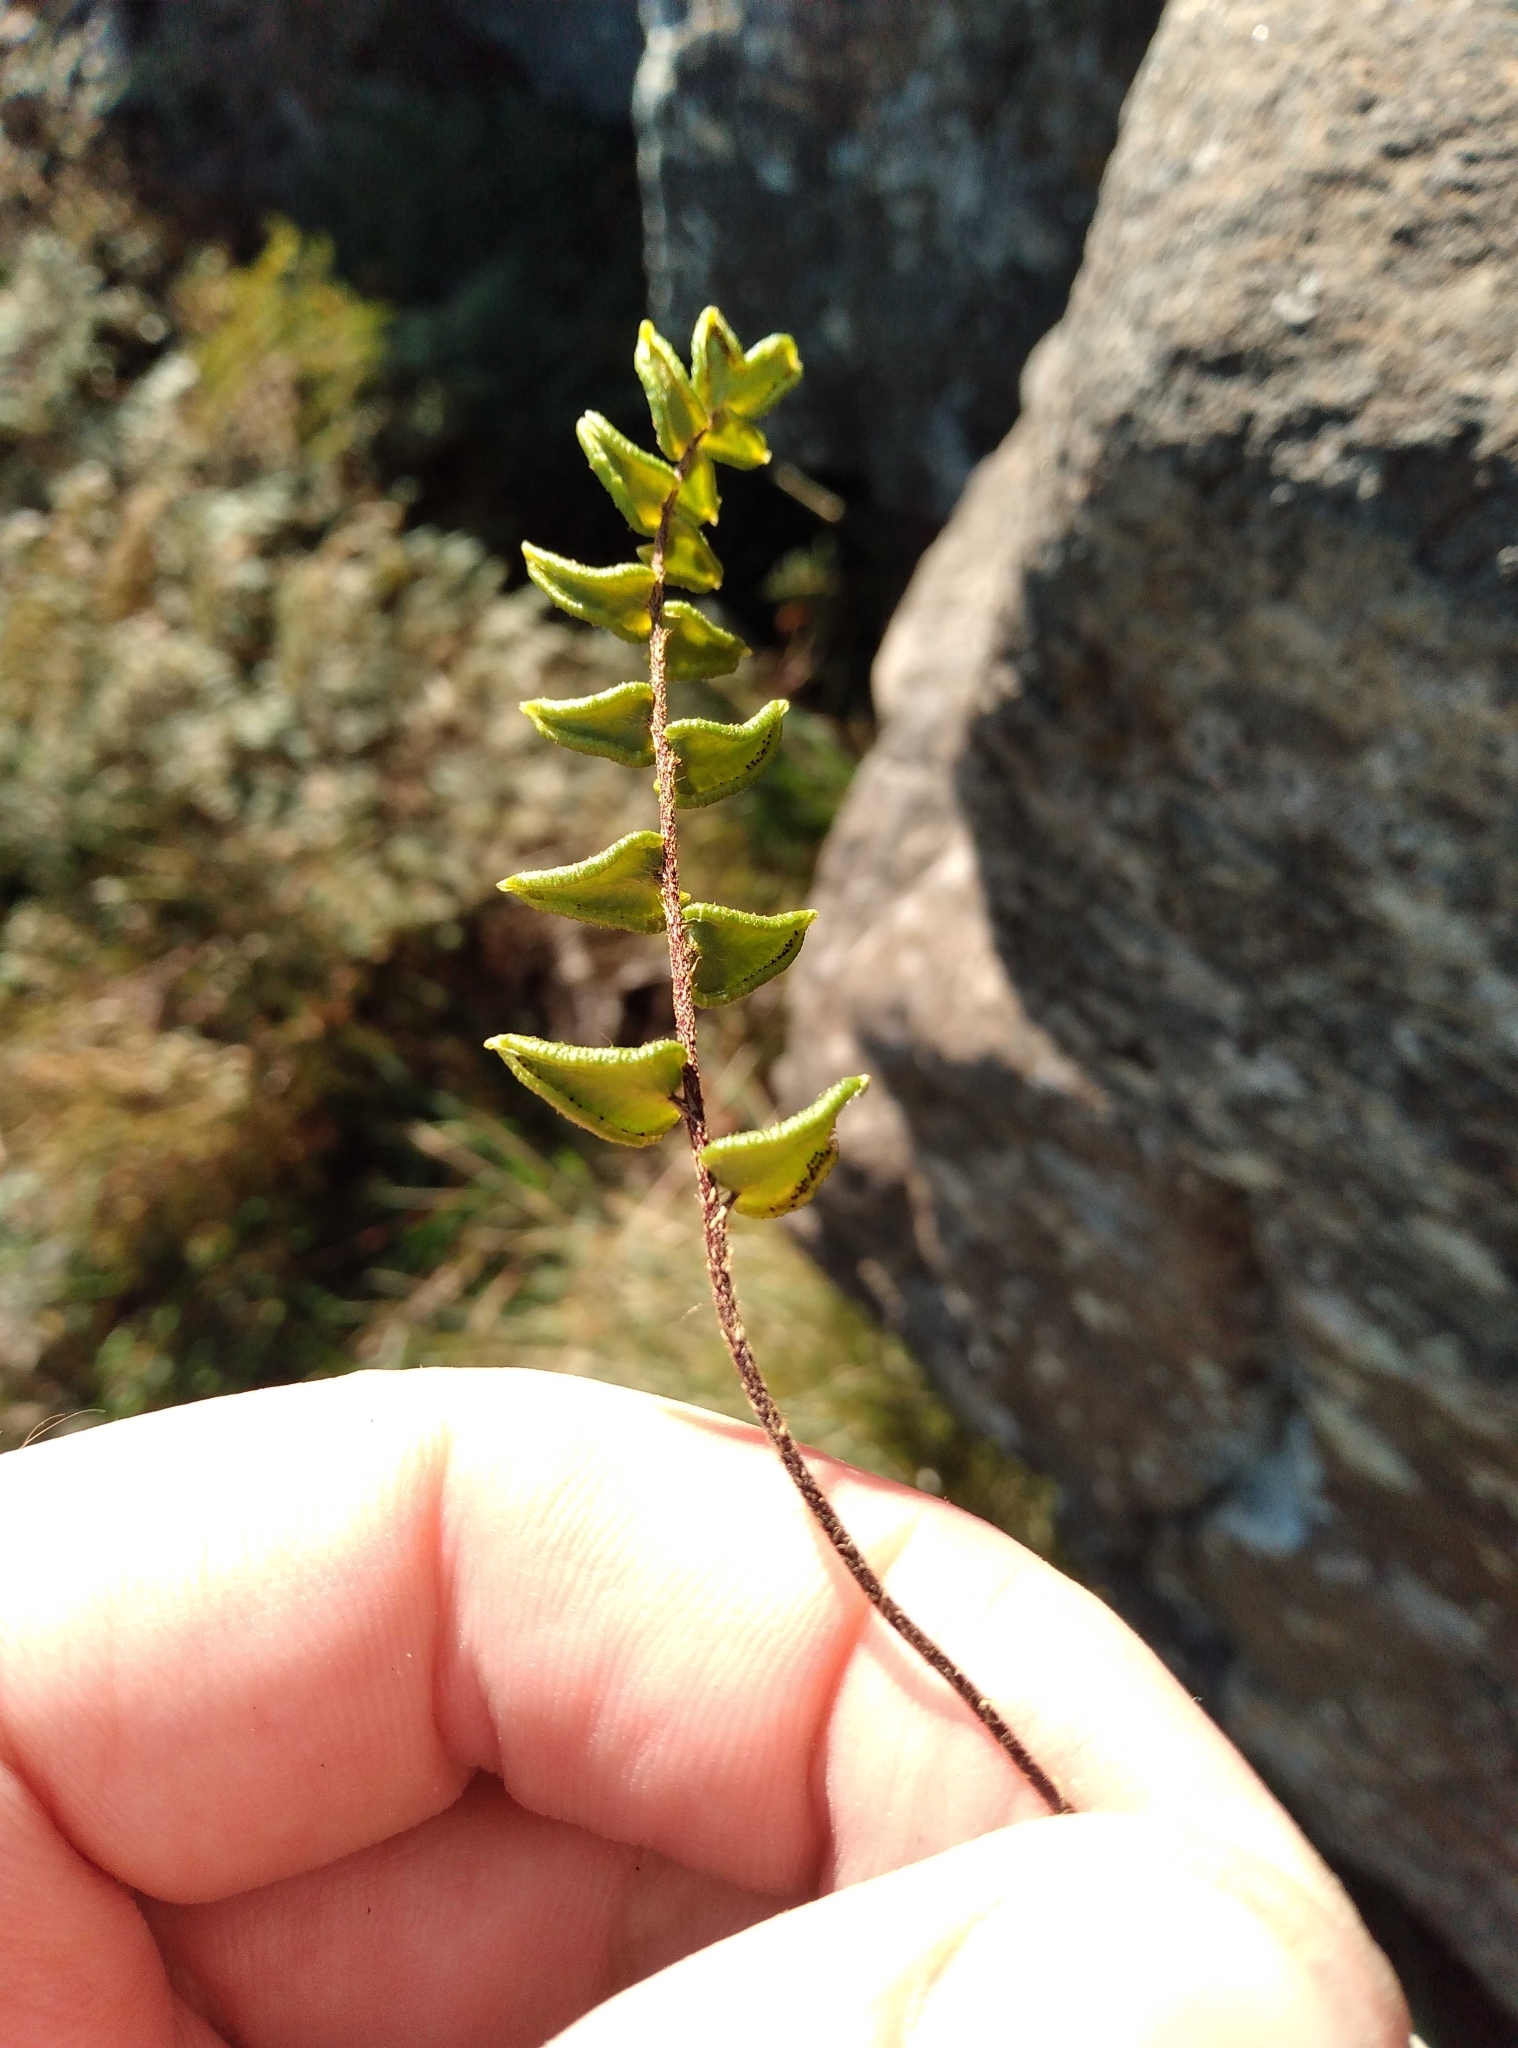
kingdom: Plantae
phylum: Tracheophyta
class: Polypodiopsida
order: Polypodiales
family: Pteridaceae
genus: Pellaea
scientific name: Pellaea calidirupium
